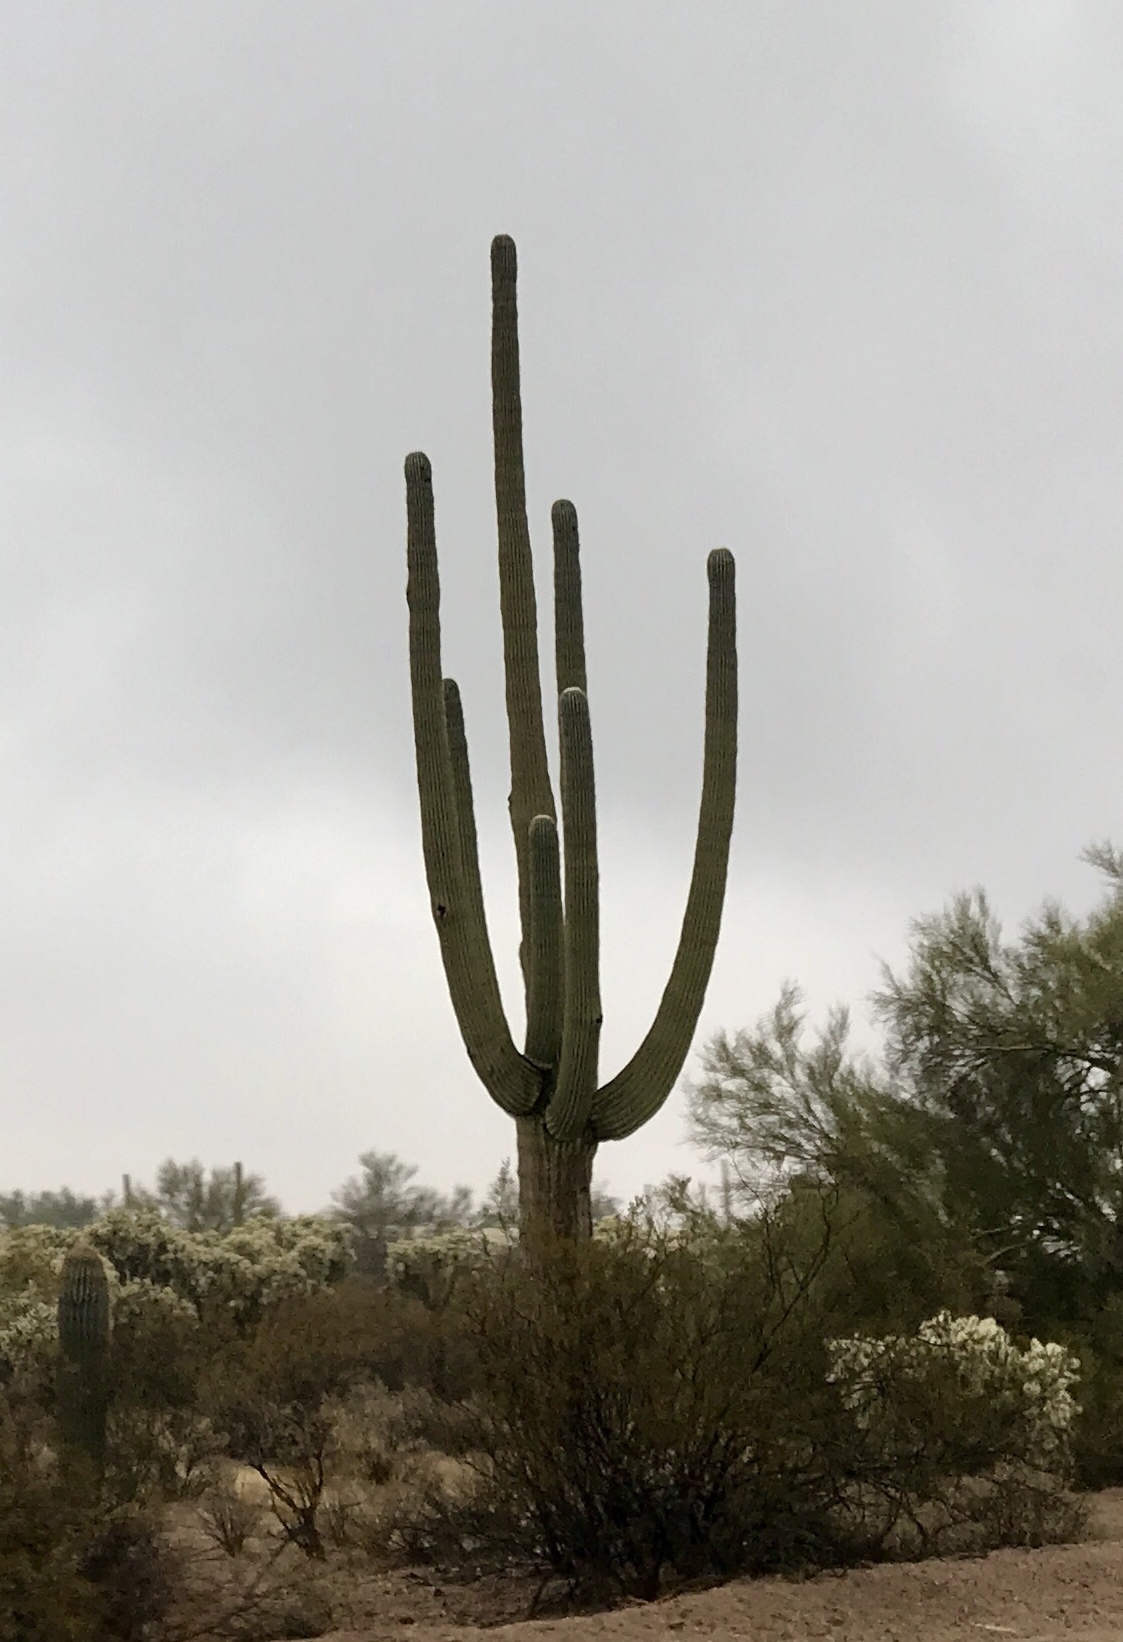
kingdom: Plantae
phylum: Tracheophyta
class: Magnoliopsida
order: Caryophyllales
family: Cactaceae
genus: Carnegiea
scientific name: Carnegiea gigantea
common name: Saguaro
